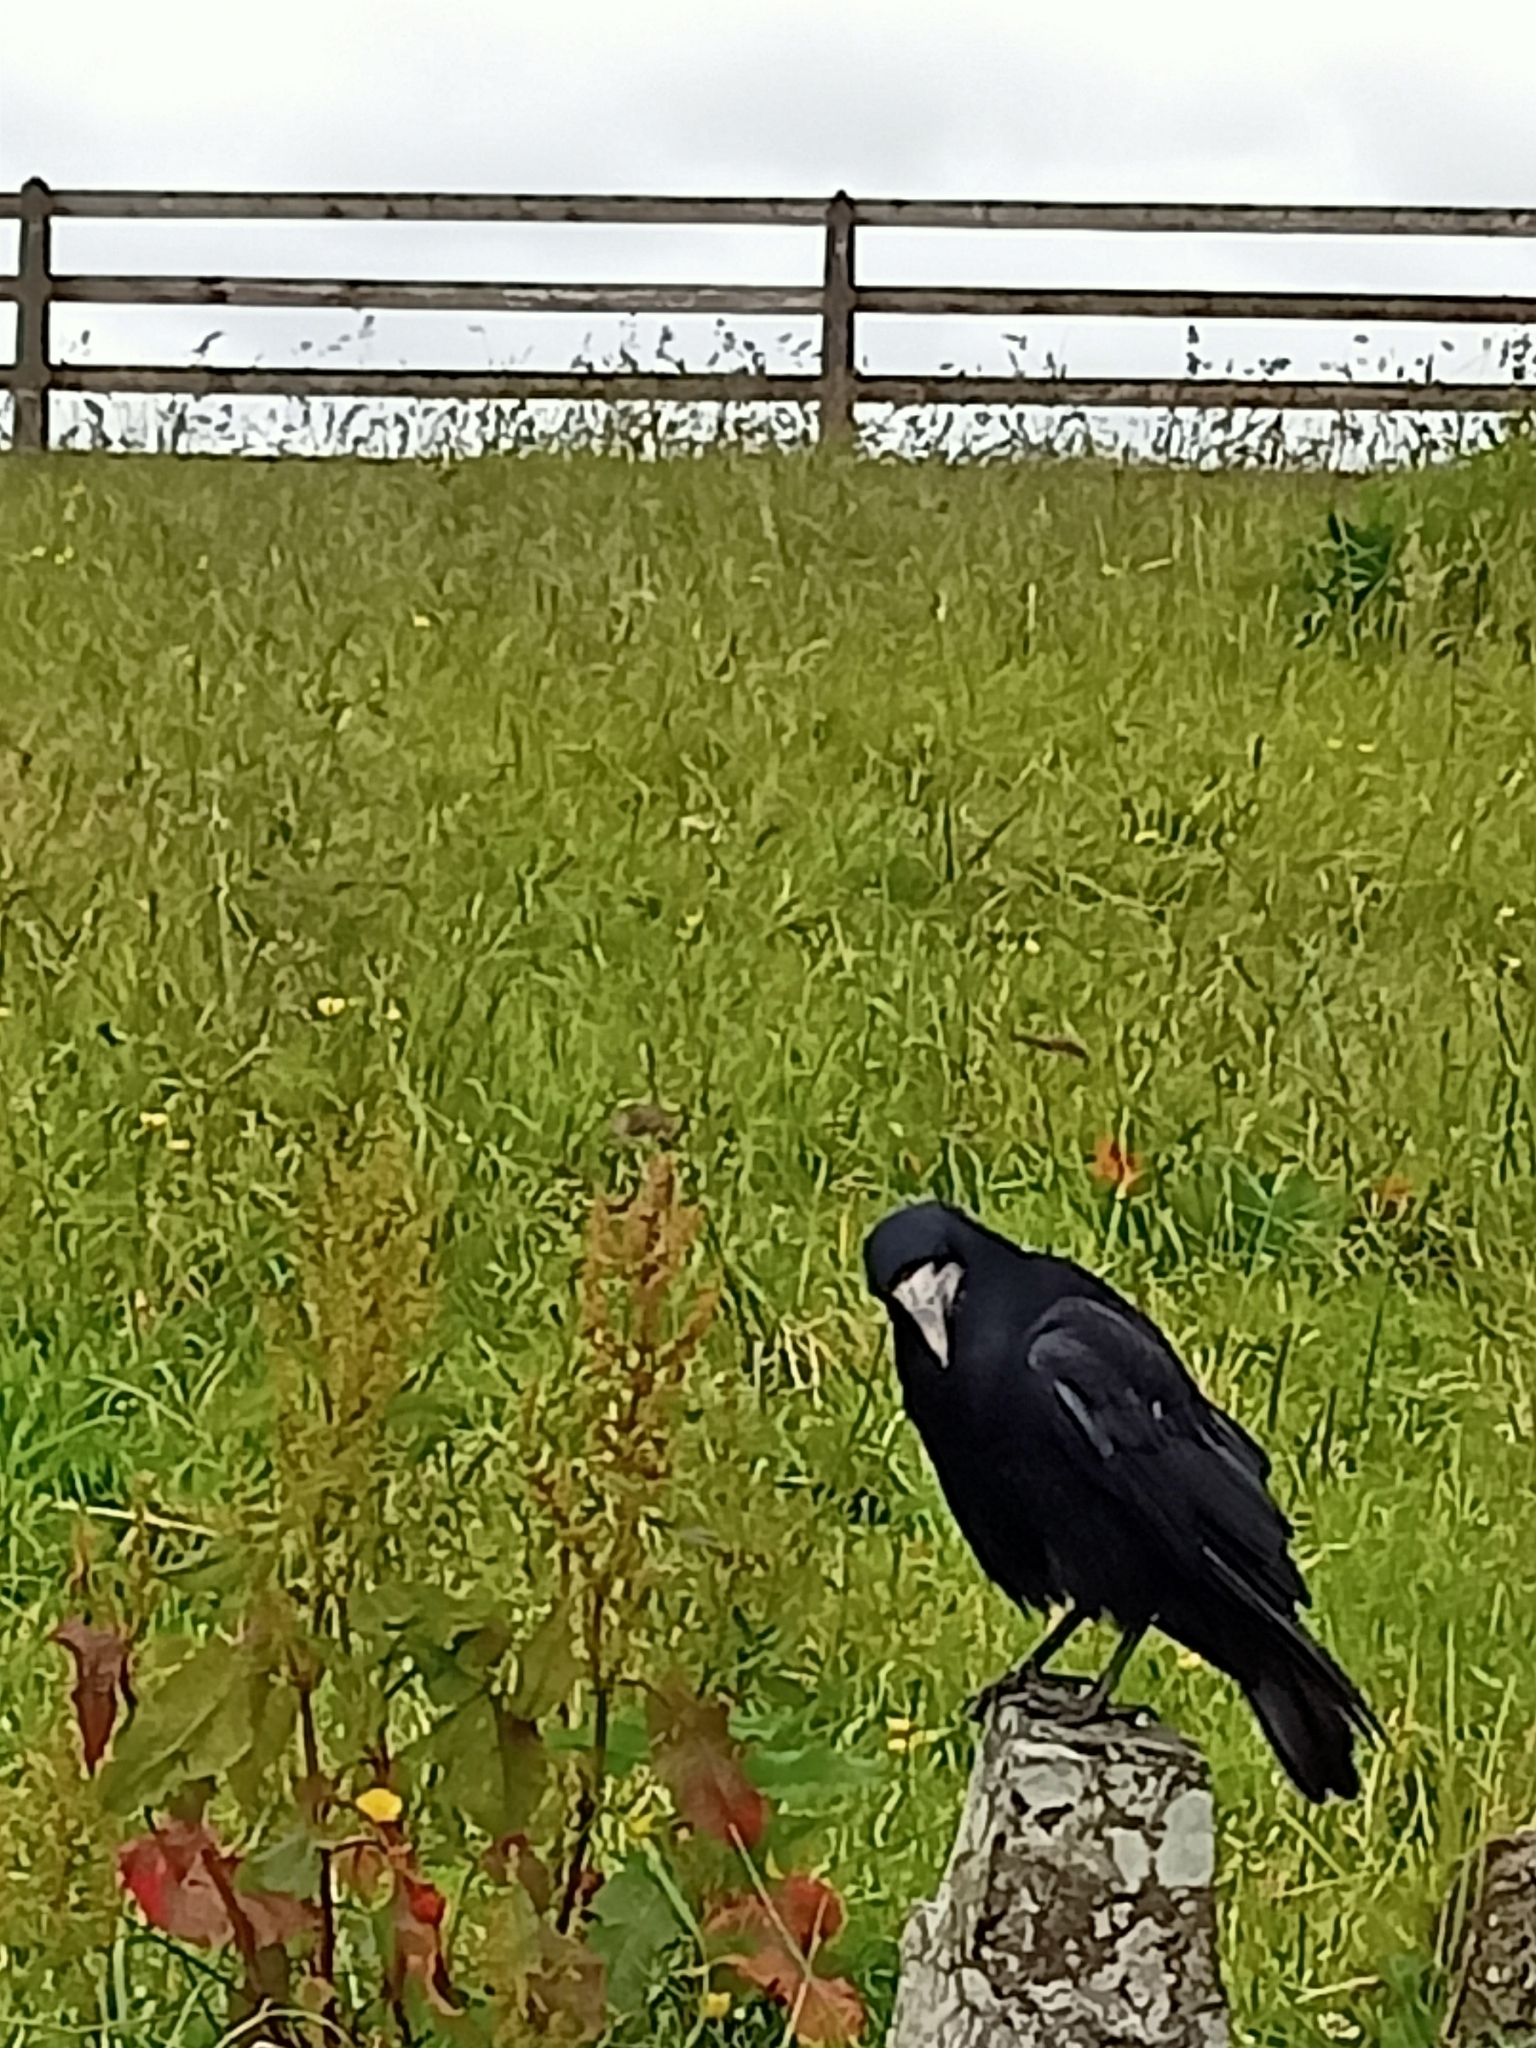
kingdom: Animalia
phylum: Chordata
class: Aves
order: Passeriformes
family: Corvidae
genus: Corvus
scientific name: Corvus frugilegus
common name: Rook
